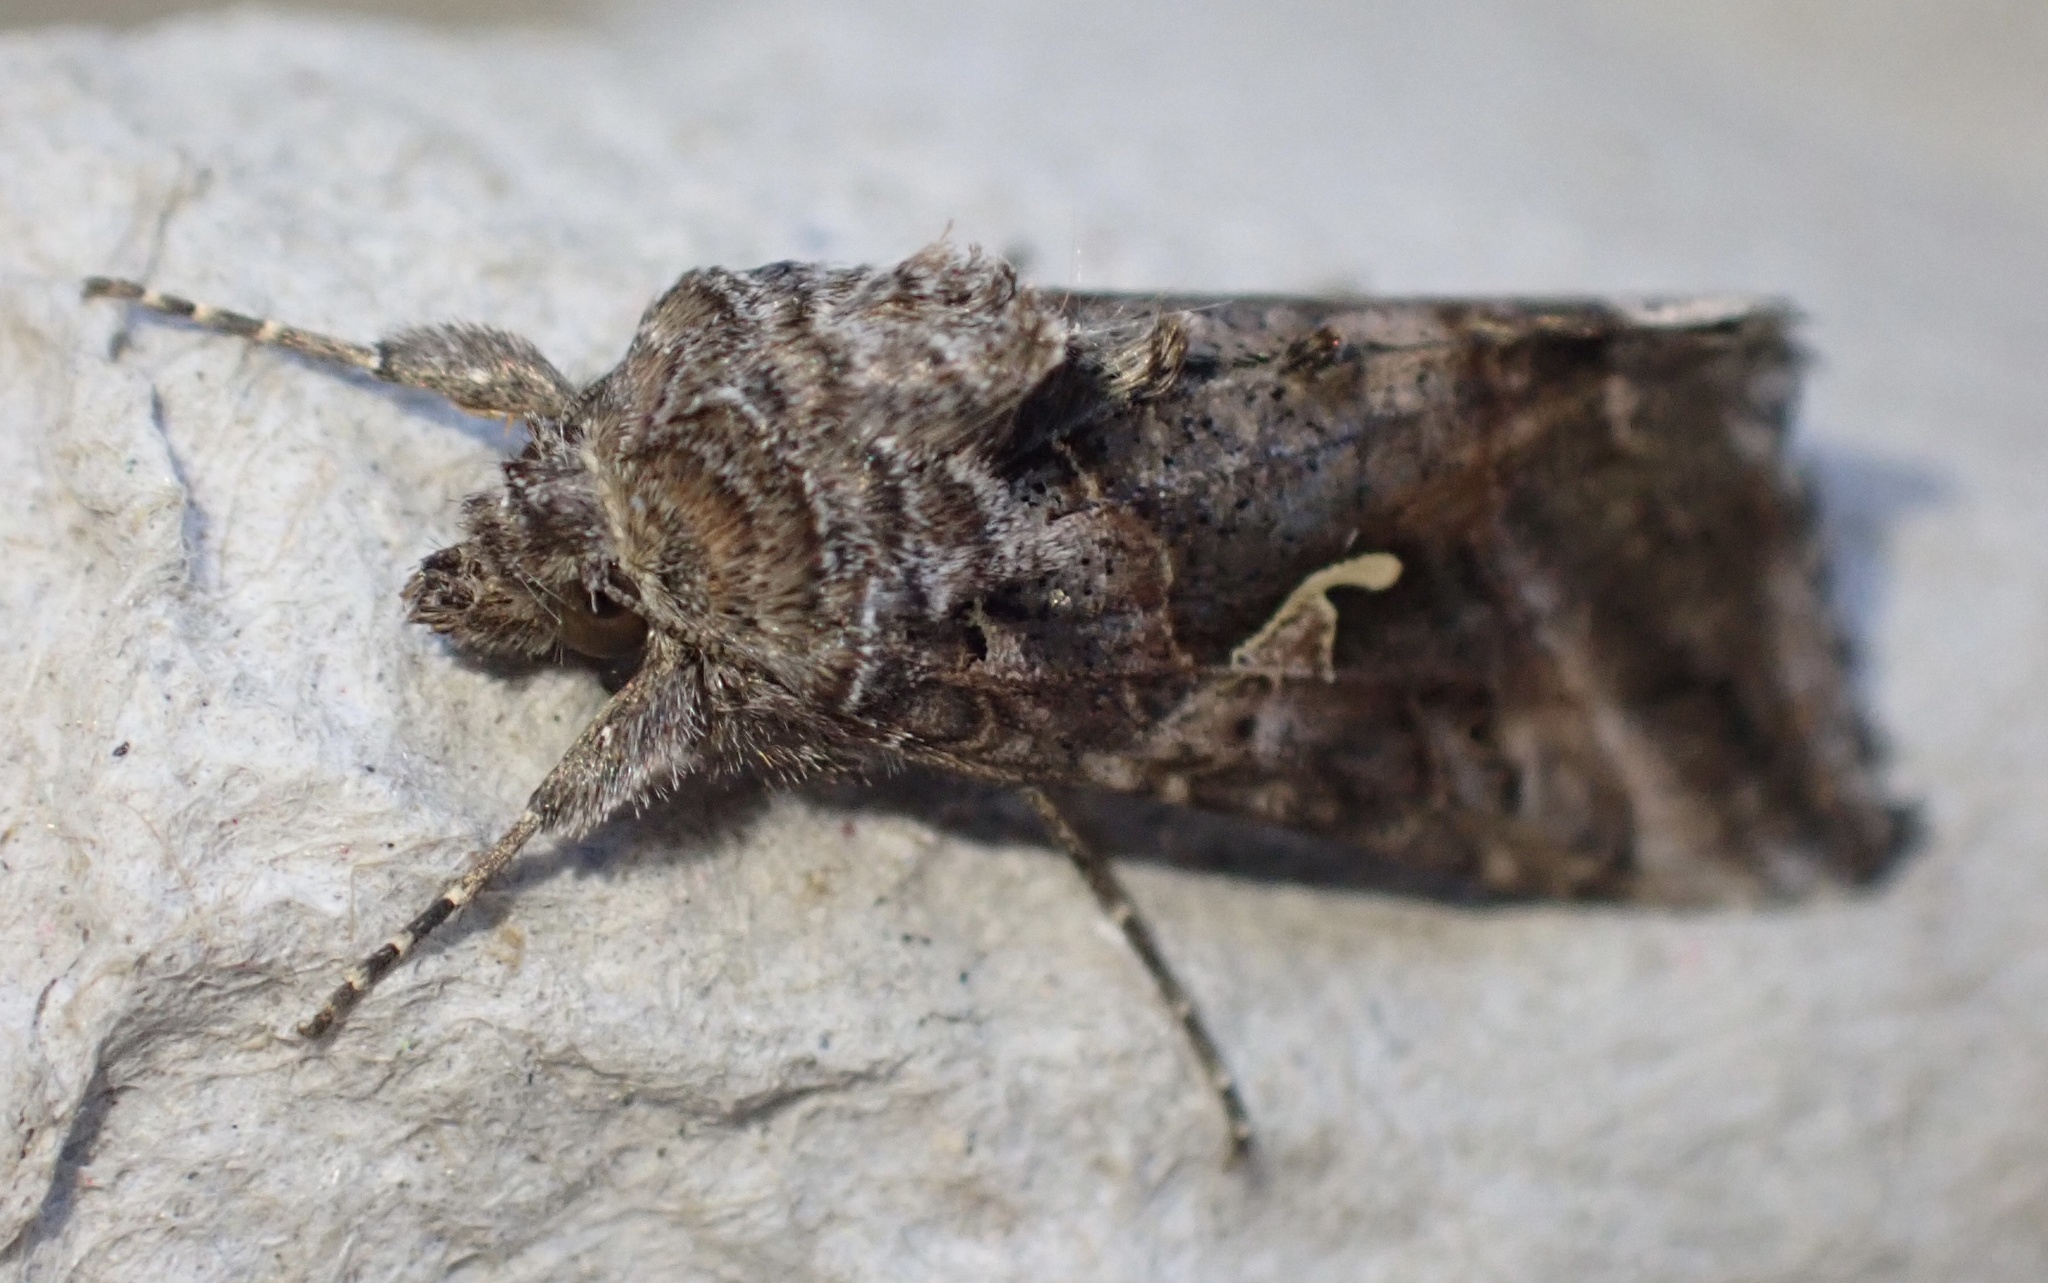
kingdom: Animalia
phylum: Arthropoda
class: Insecta
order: Lepidoptera
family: Noctuidae
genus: Autographa
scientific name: Autographa gamma
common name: Silver y
